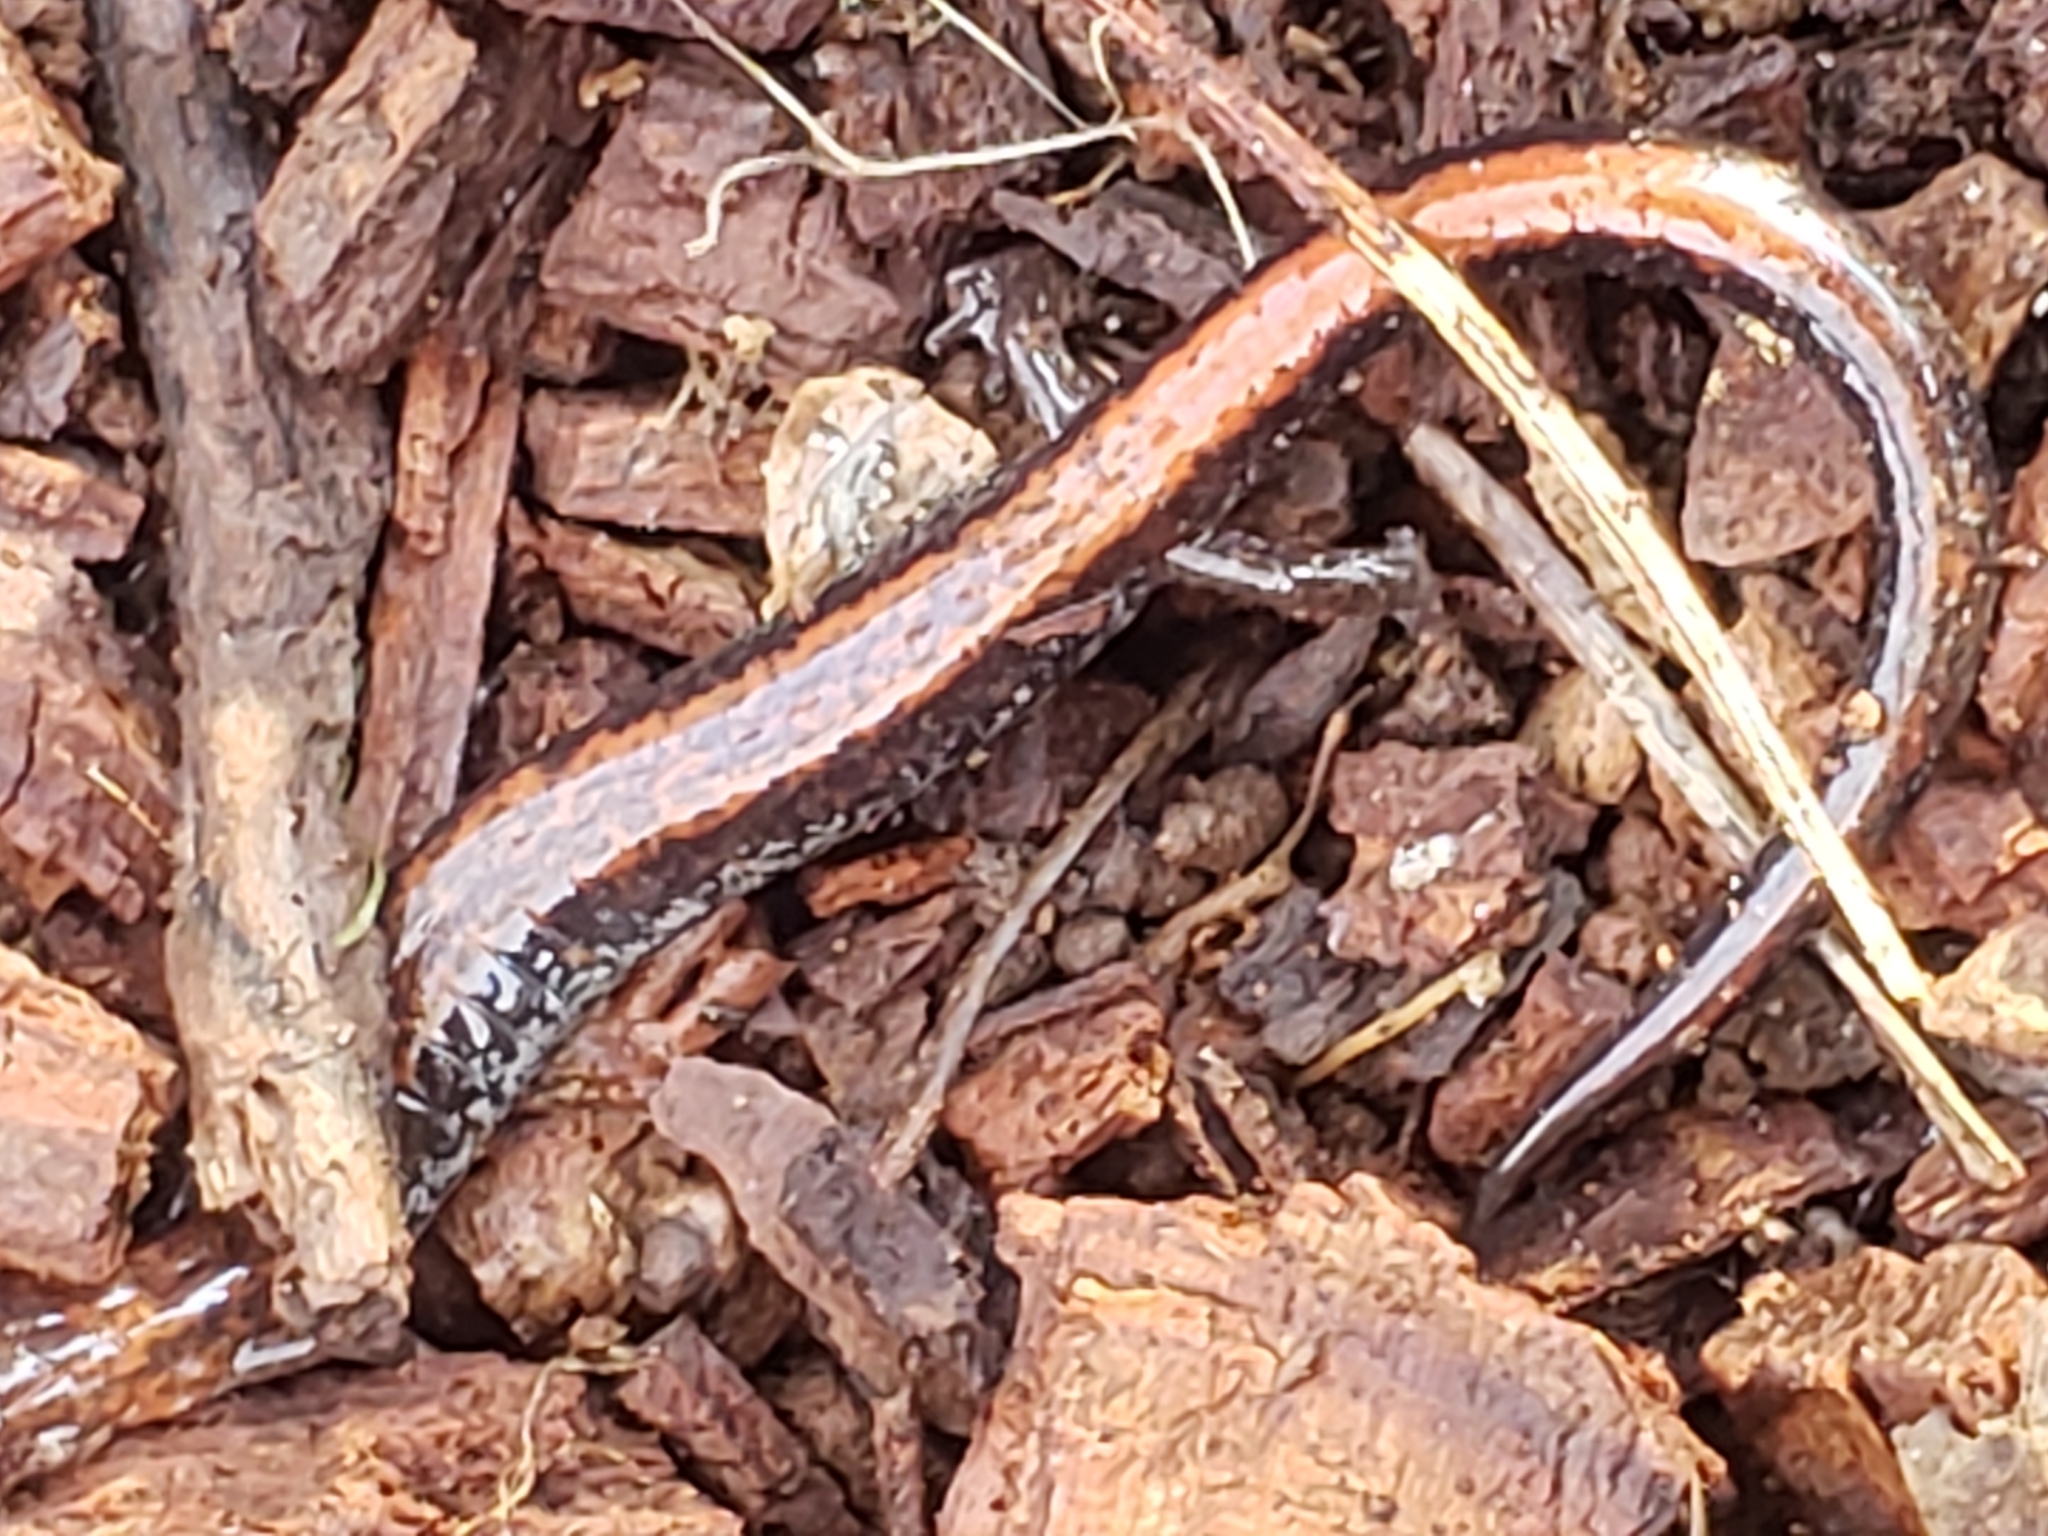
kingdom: Animalia
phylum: Chordata
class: Amphibia
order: Caudata
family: Plethodontidae
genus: Plethodon
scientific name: Plethodon cinereus
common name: Redback salamander
